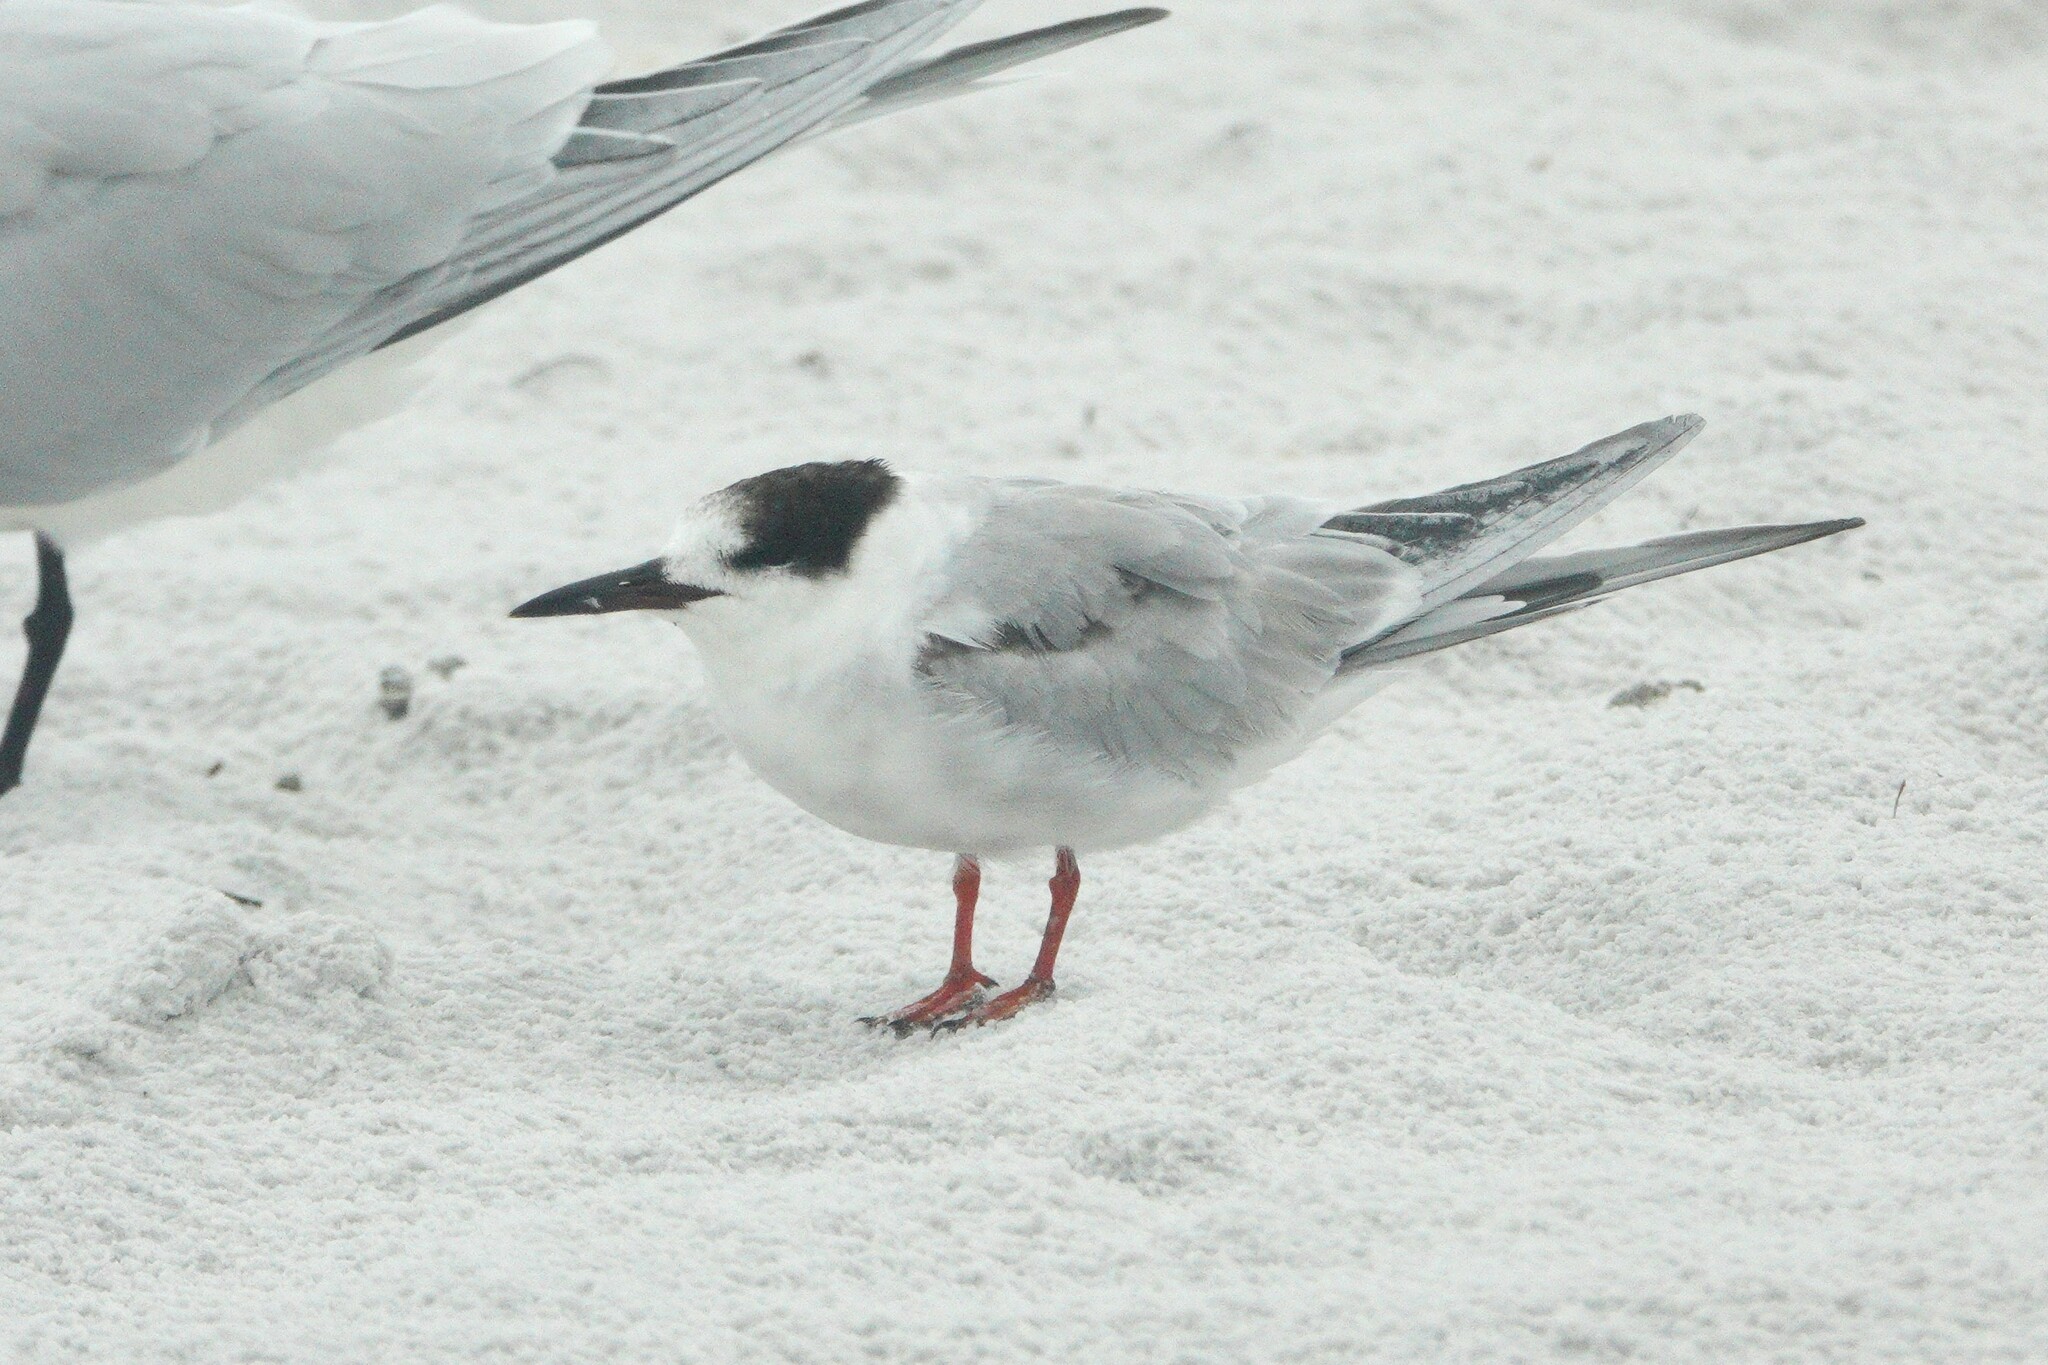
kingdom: Animalia
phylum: Chordata
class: Aves
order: Charadriiformes
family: Laridae
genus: Sterna
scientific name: Sterna hirundo
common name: Common tern
